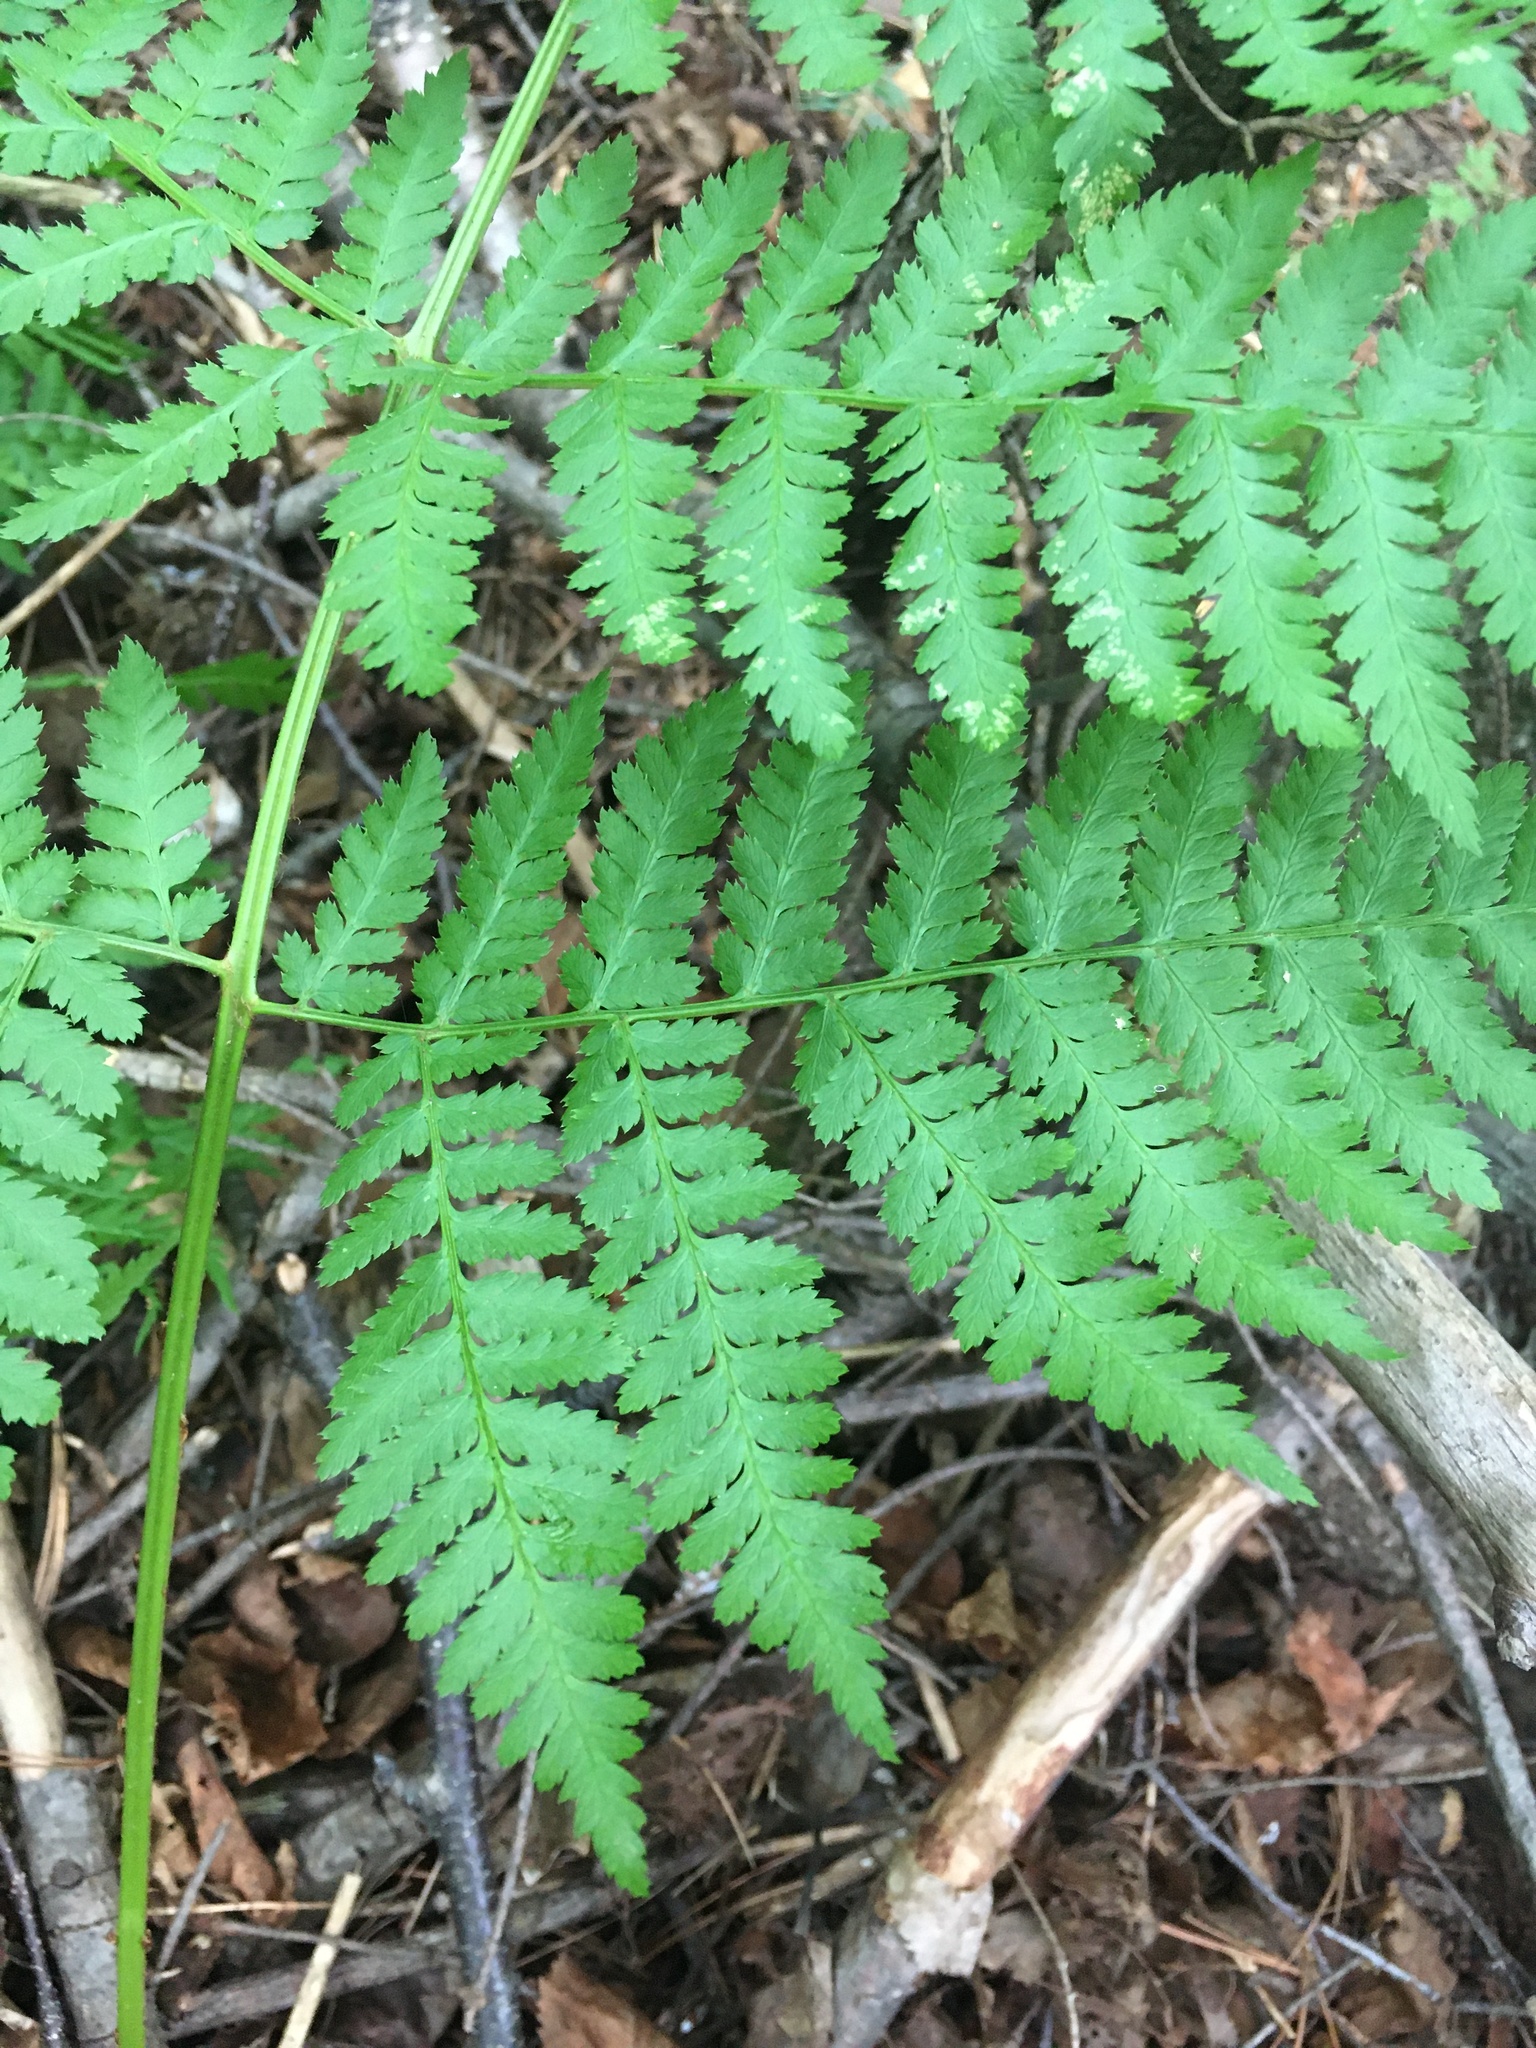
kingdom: Plantae
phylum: Tracheophyta
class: Polypodiopsida
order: Polypodiales
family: Dryopteridaceae
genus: Dryopteris
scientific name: Dryopteris expansa
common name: Northern buckler fern
